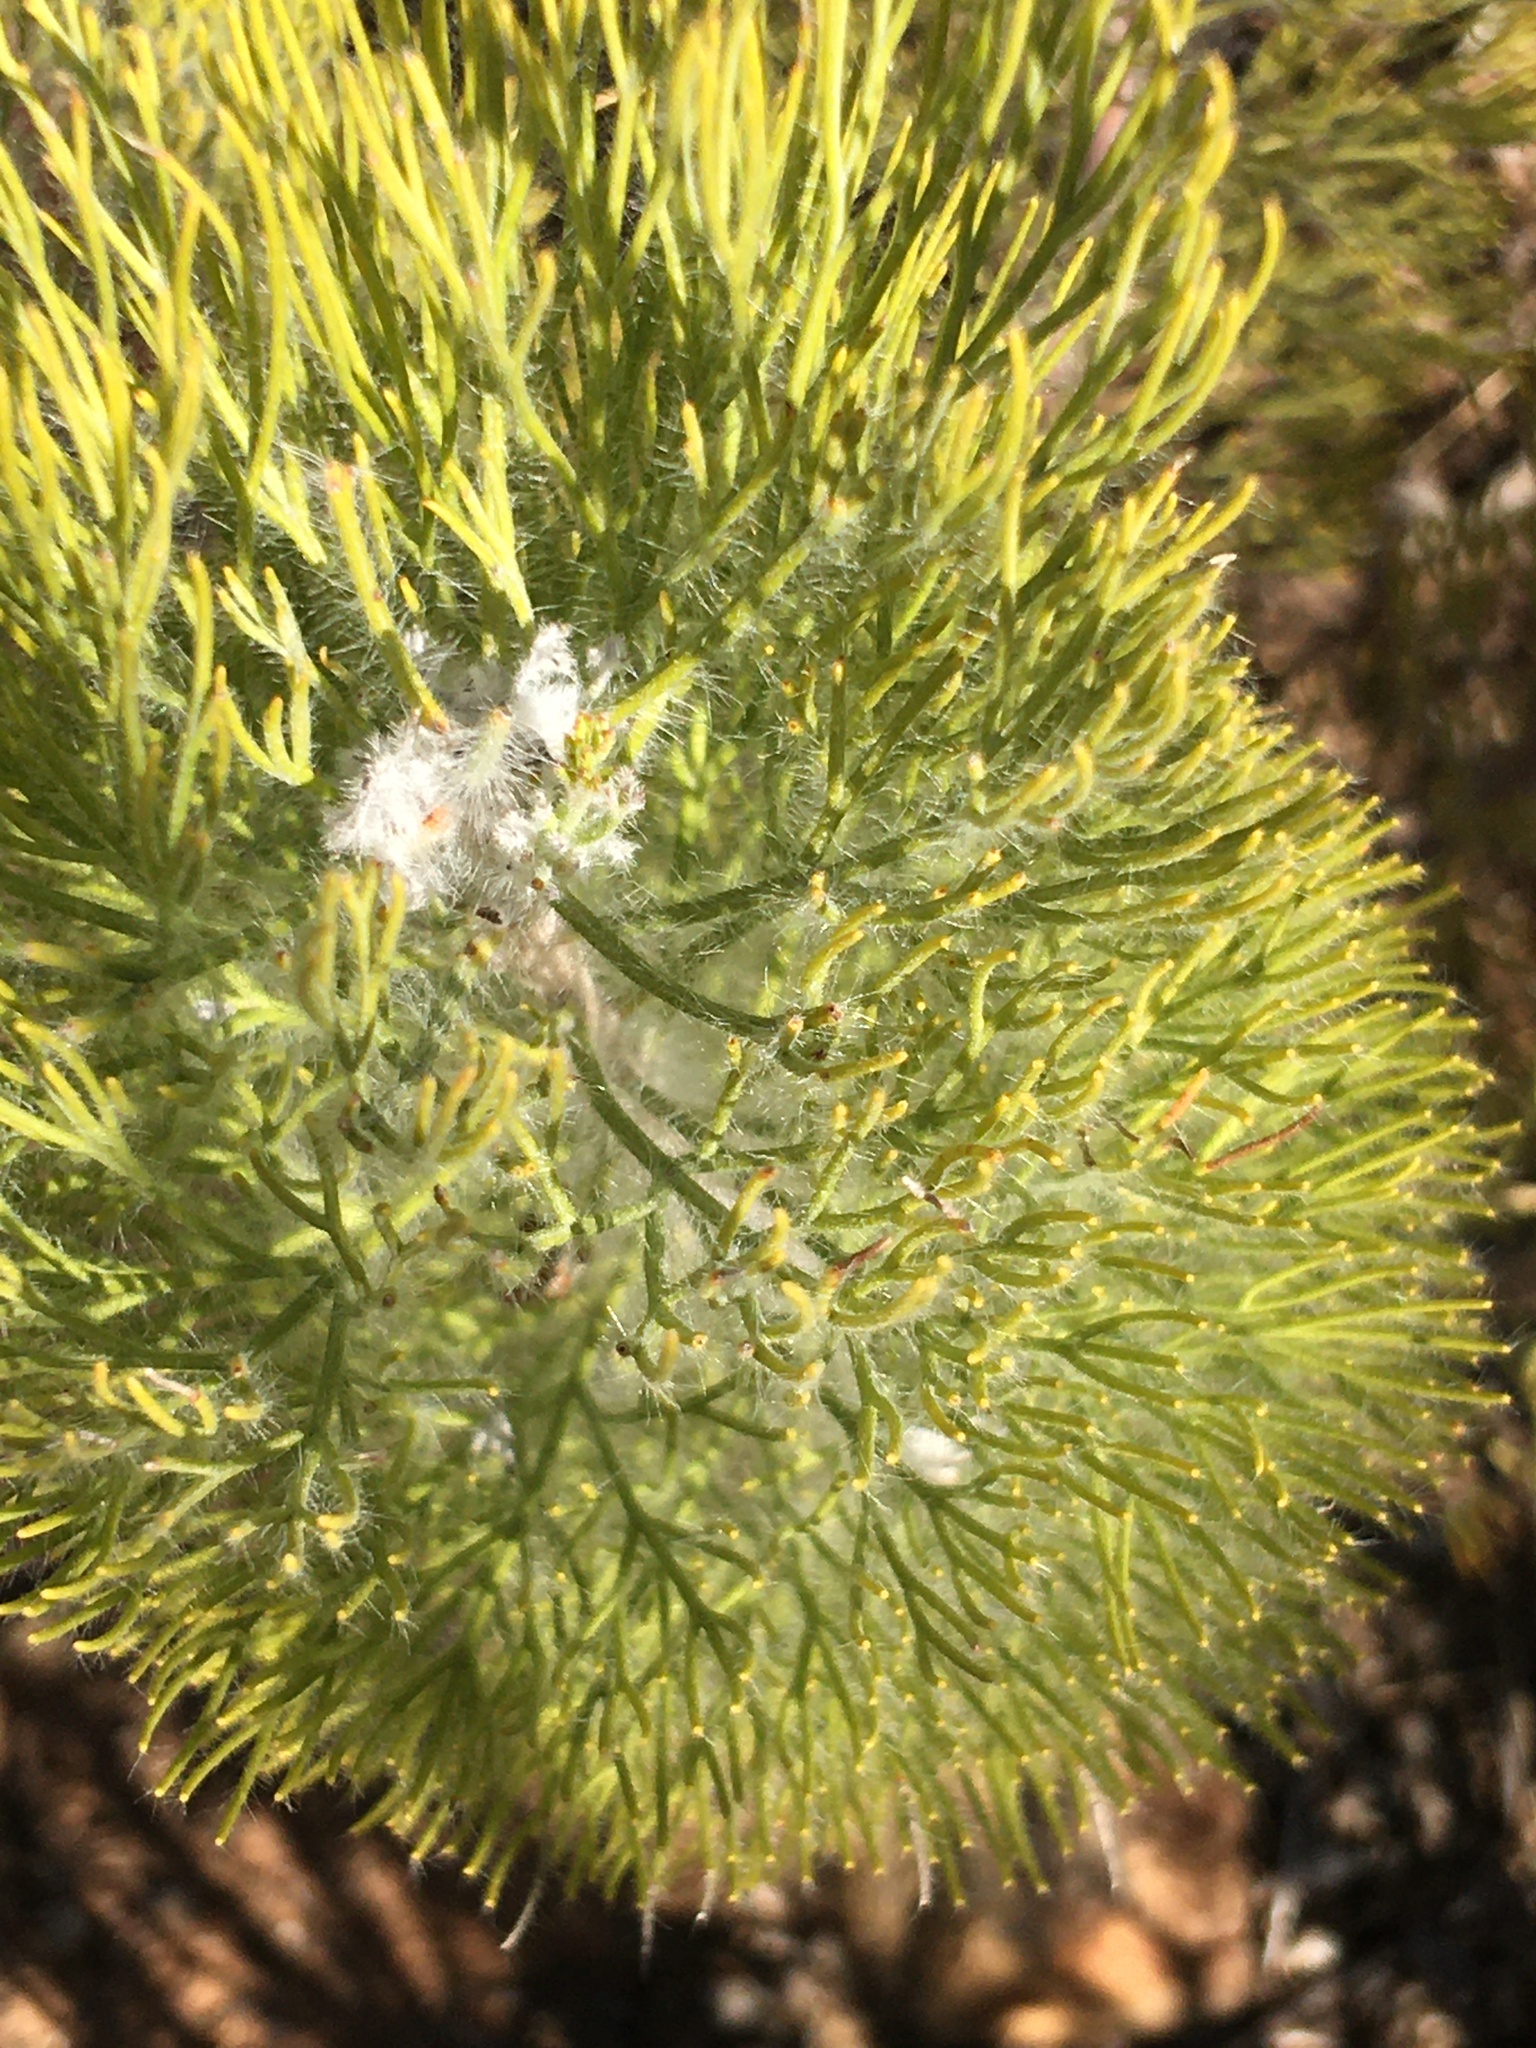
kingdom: Plantae
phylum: Tracheophyta
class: Magnoliopsida
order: Proteales
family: Proteaceae
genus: Paranomus
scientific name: Paranomus bracteolaris
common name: Bokkeveld tree sceptre
